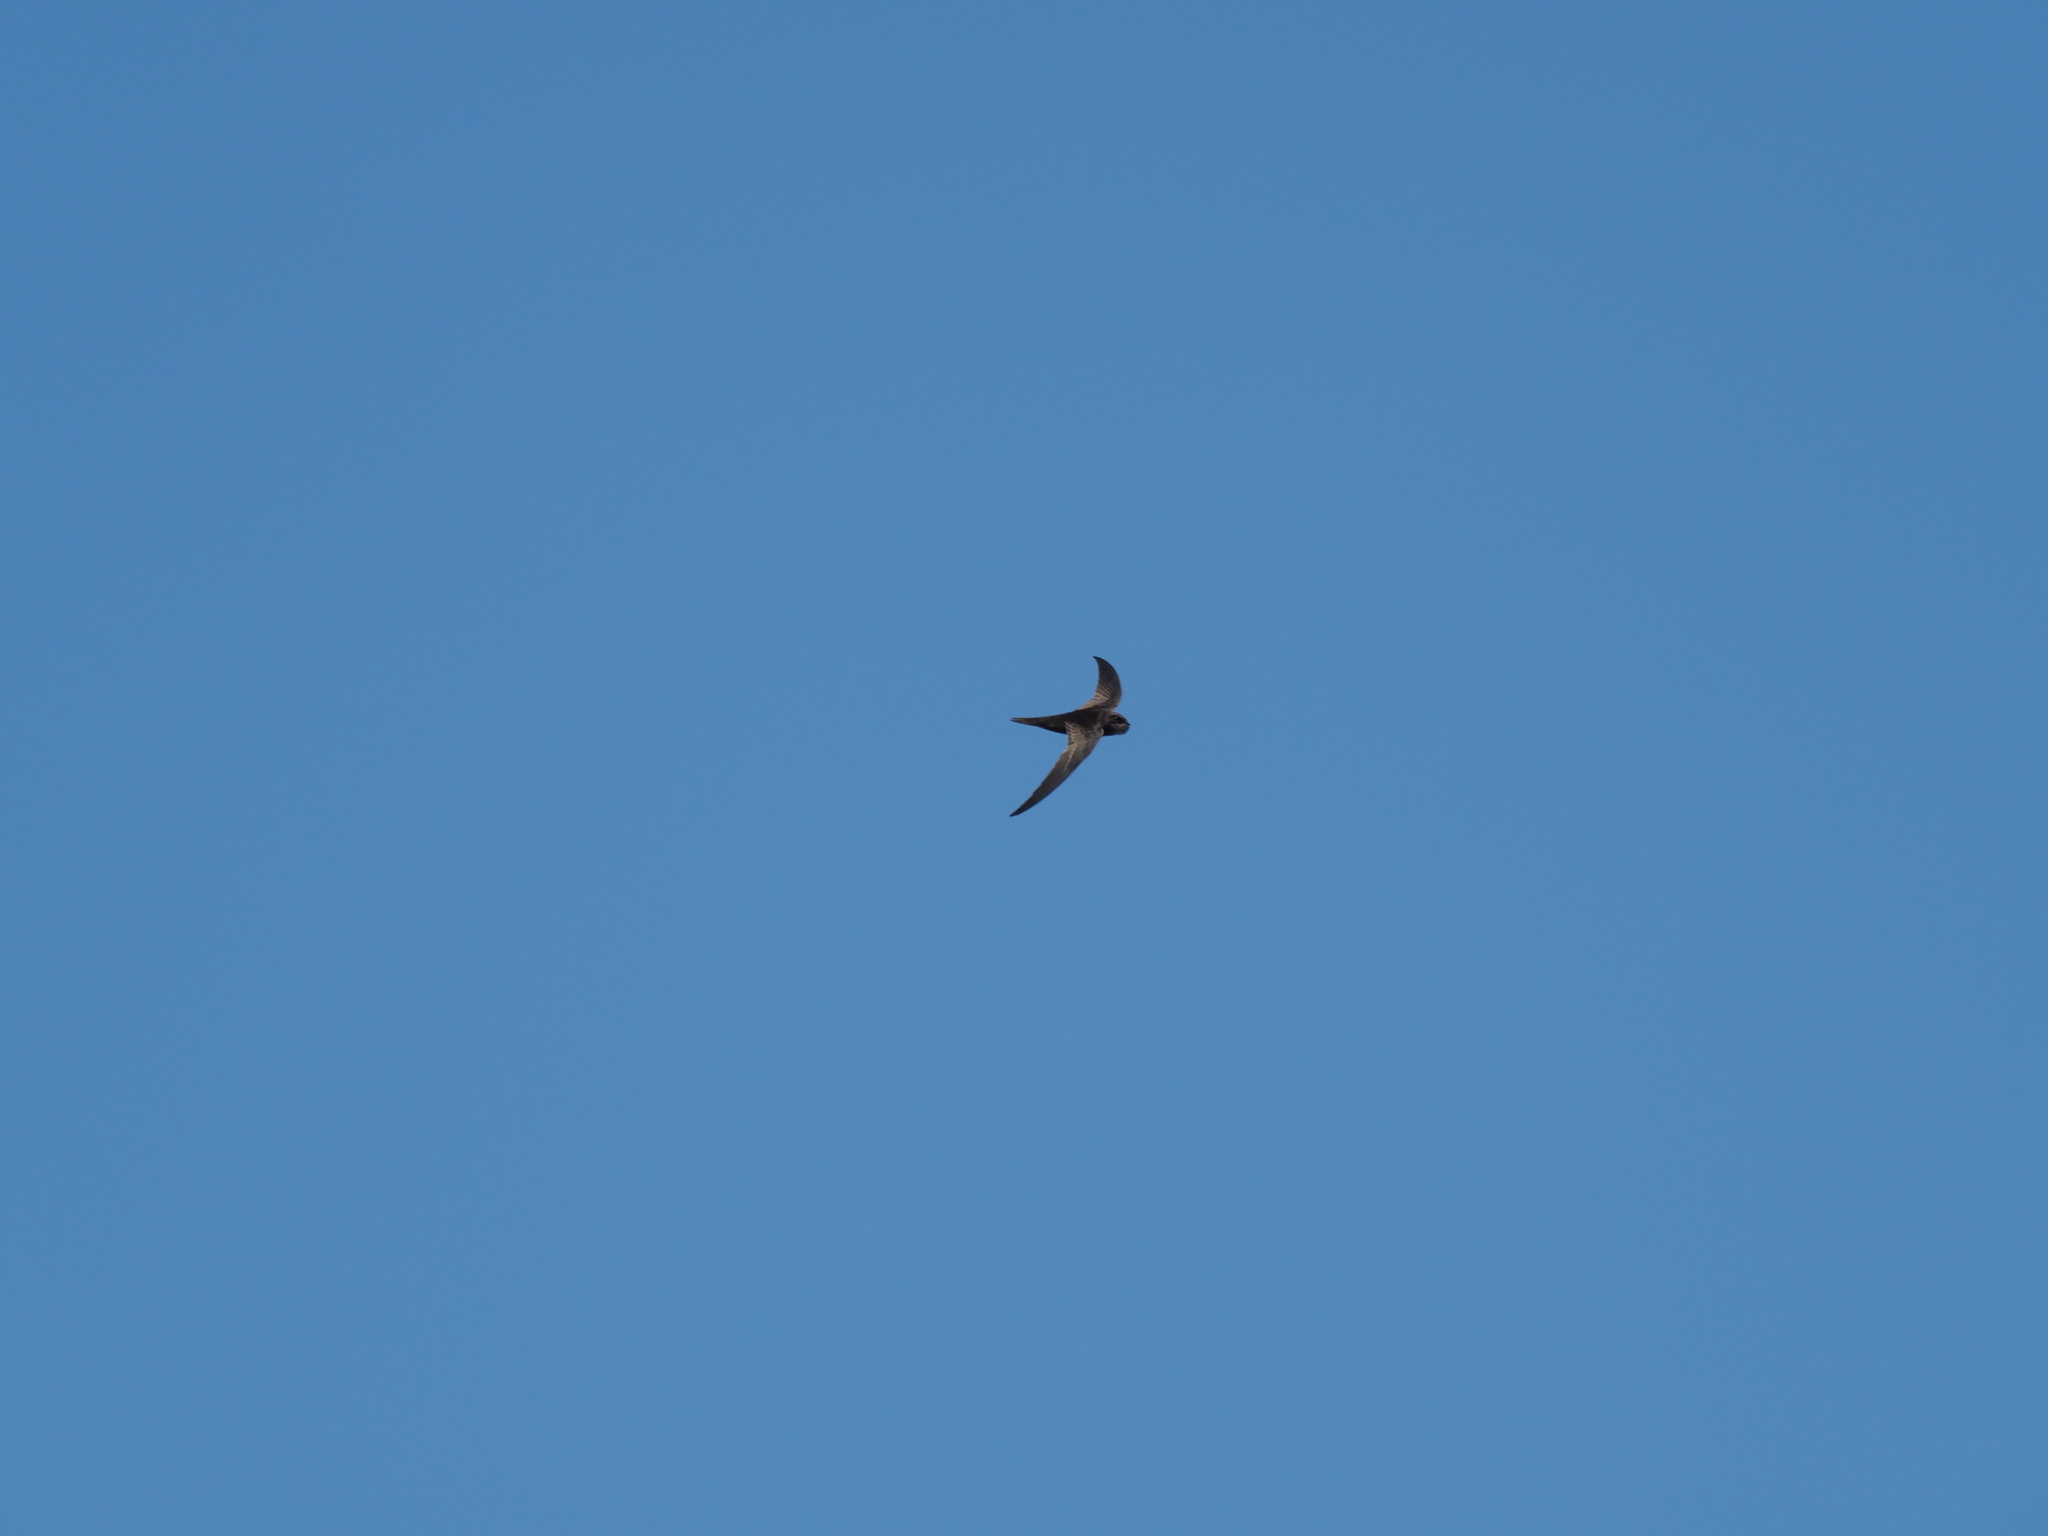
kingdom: Animalia
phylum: Chordata
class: Aves
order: Apodiformes
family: Apodidae
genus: Apus
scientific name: Apus barbatus
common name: African black swift
